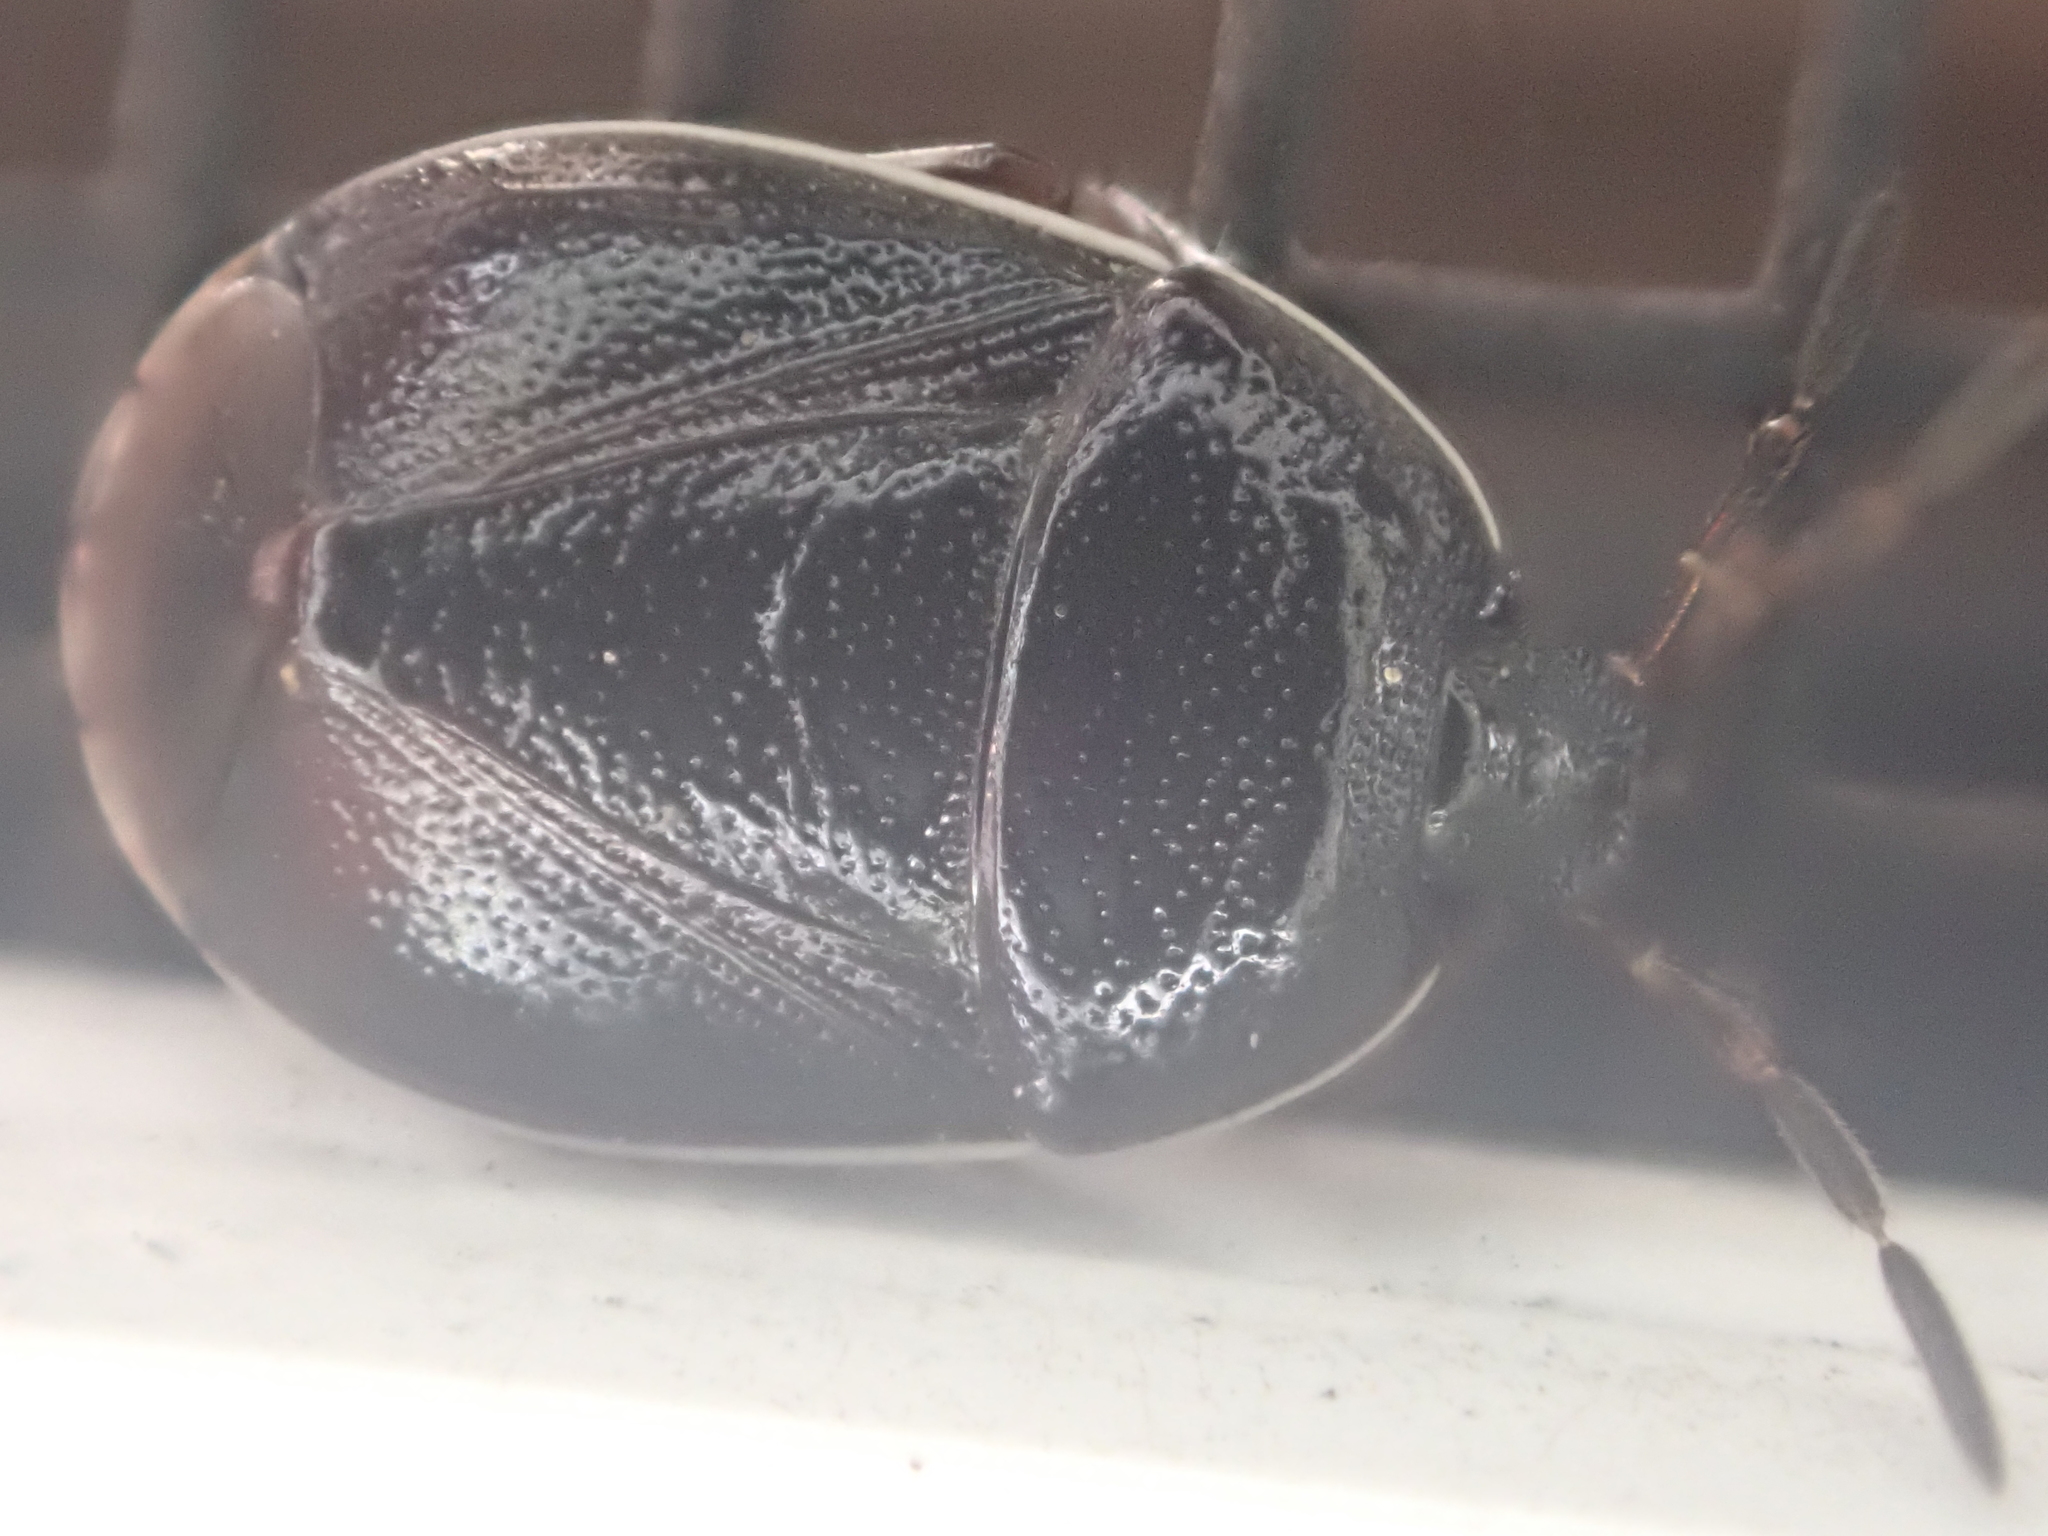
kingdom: Animalia
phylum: Arthropoda
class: Insecta
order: Hemiptera
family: Cydnidae
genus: Sehirus
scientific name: Sehirus cinctus
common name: White-margined burrower bug
